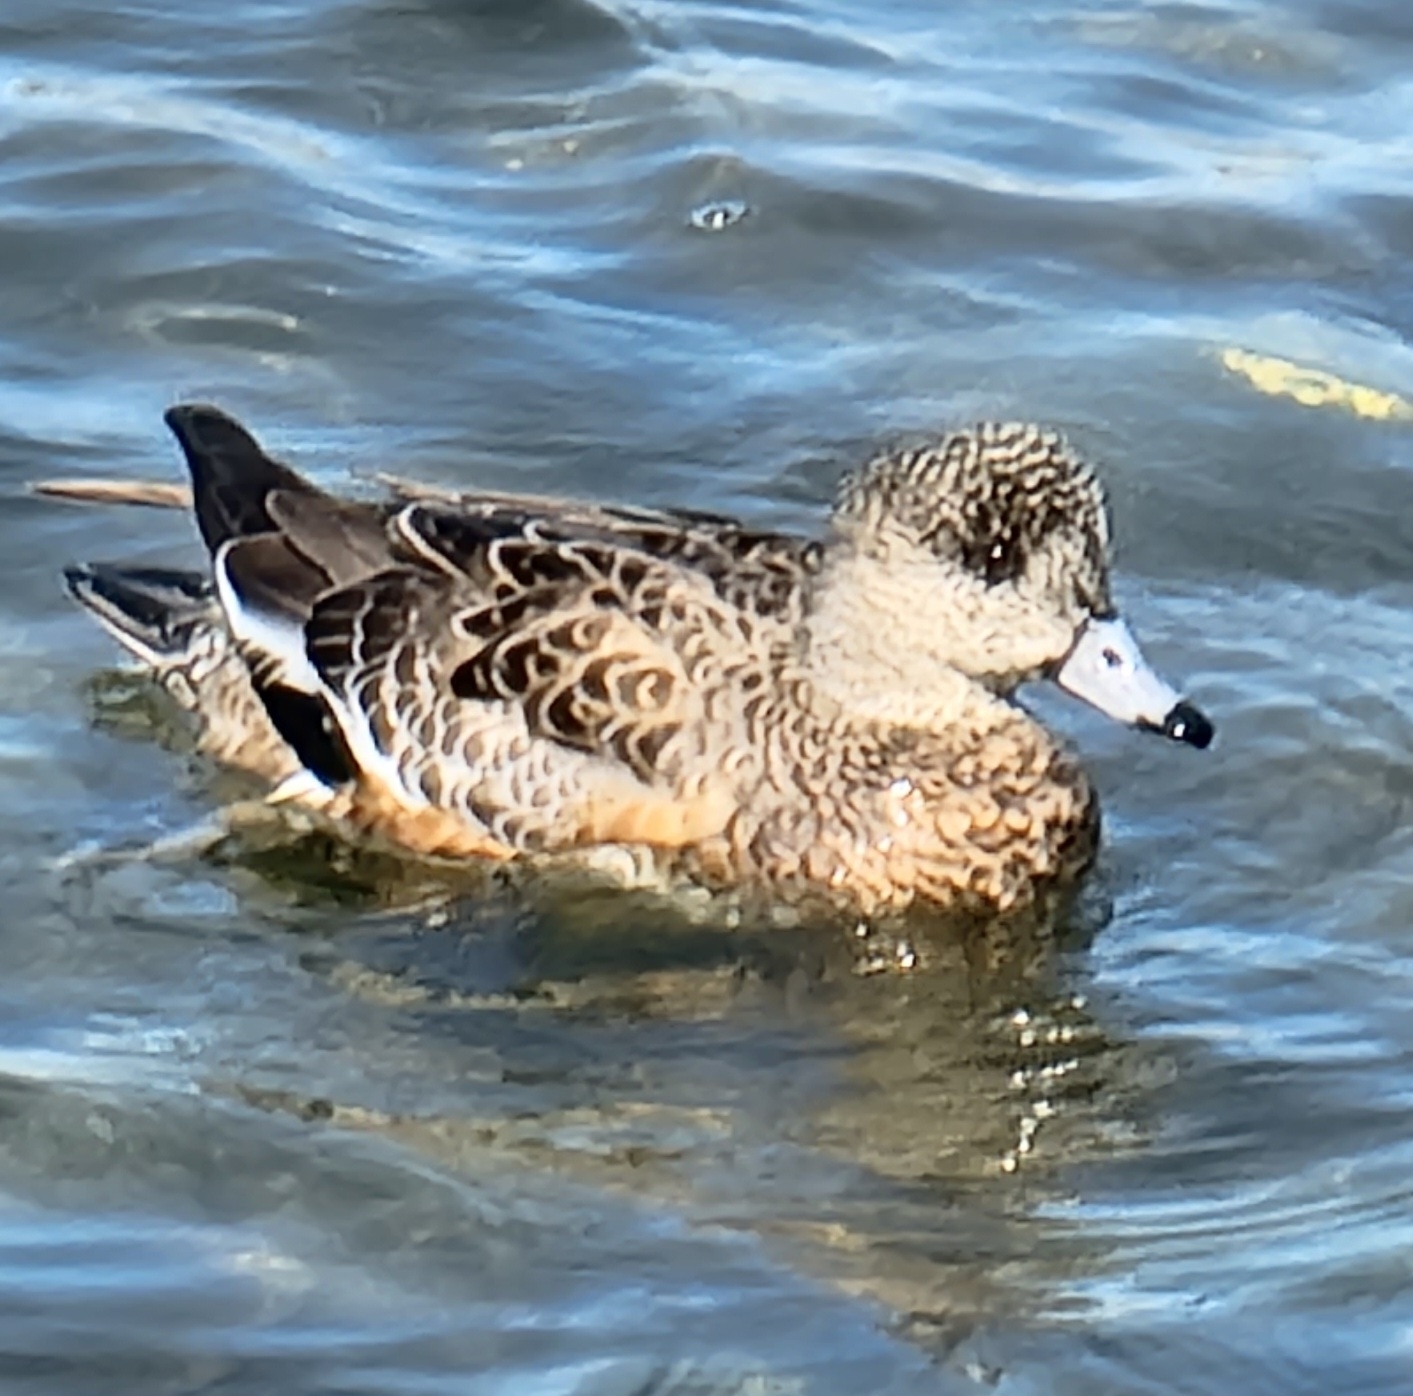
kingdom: Animalia
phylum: Chordata
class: Aves
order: Anseriformes
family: Anatidae
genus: Mareca
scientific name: Mareca americana
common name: American wigeon
